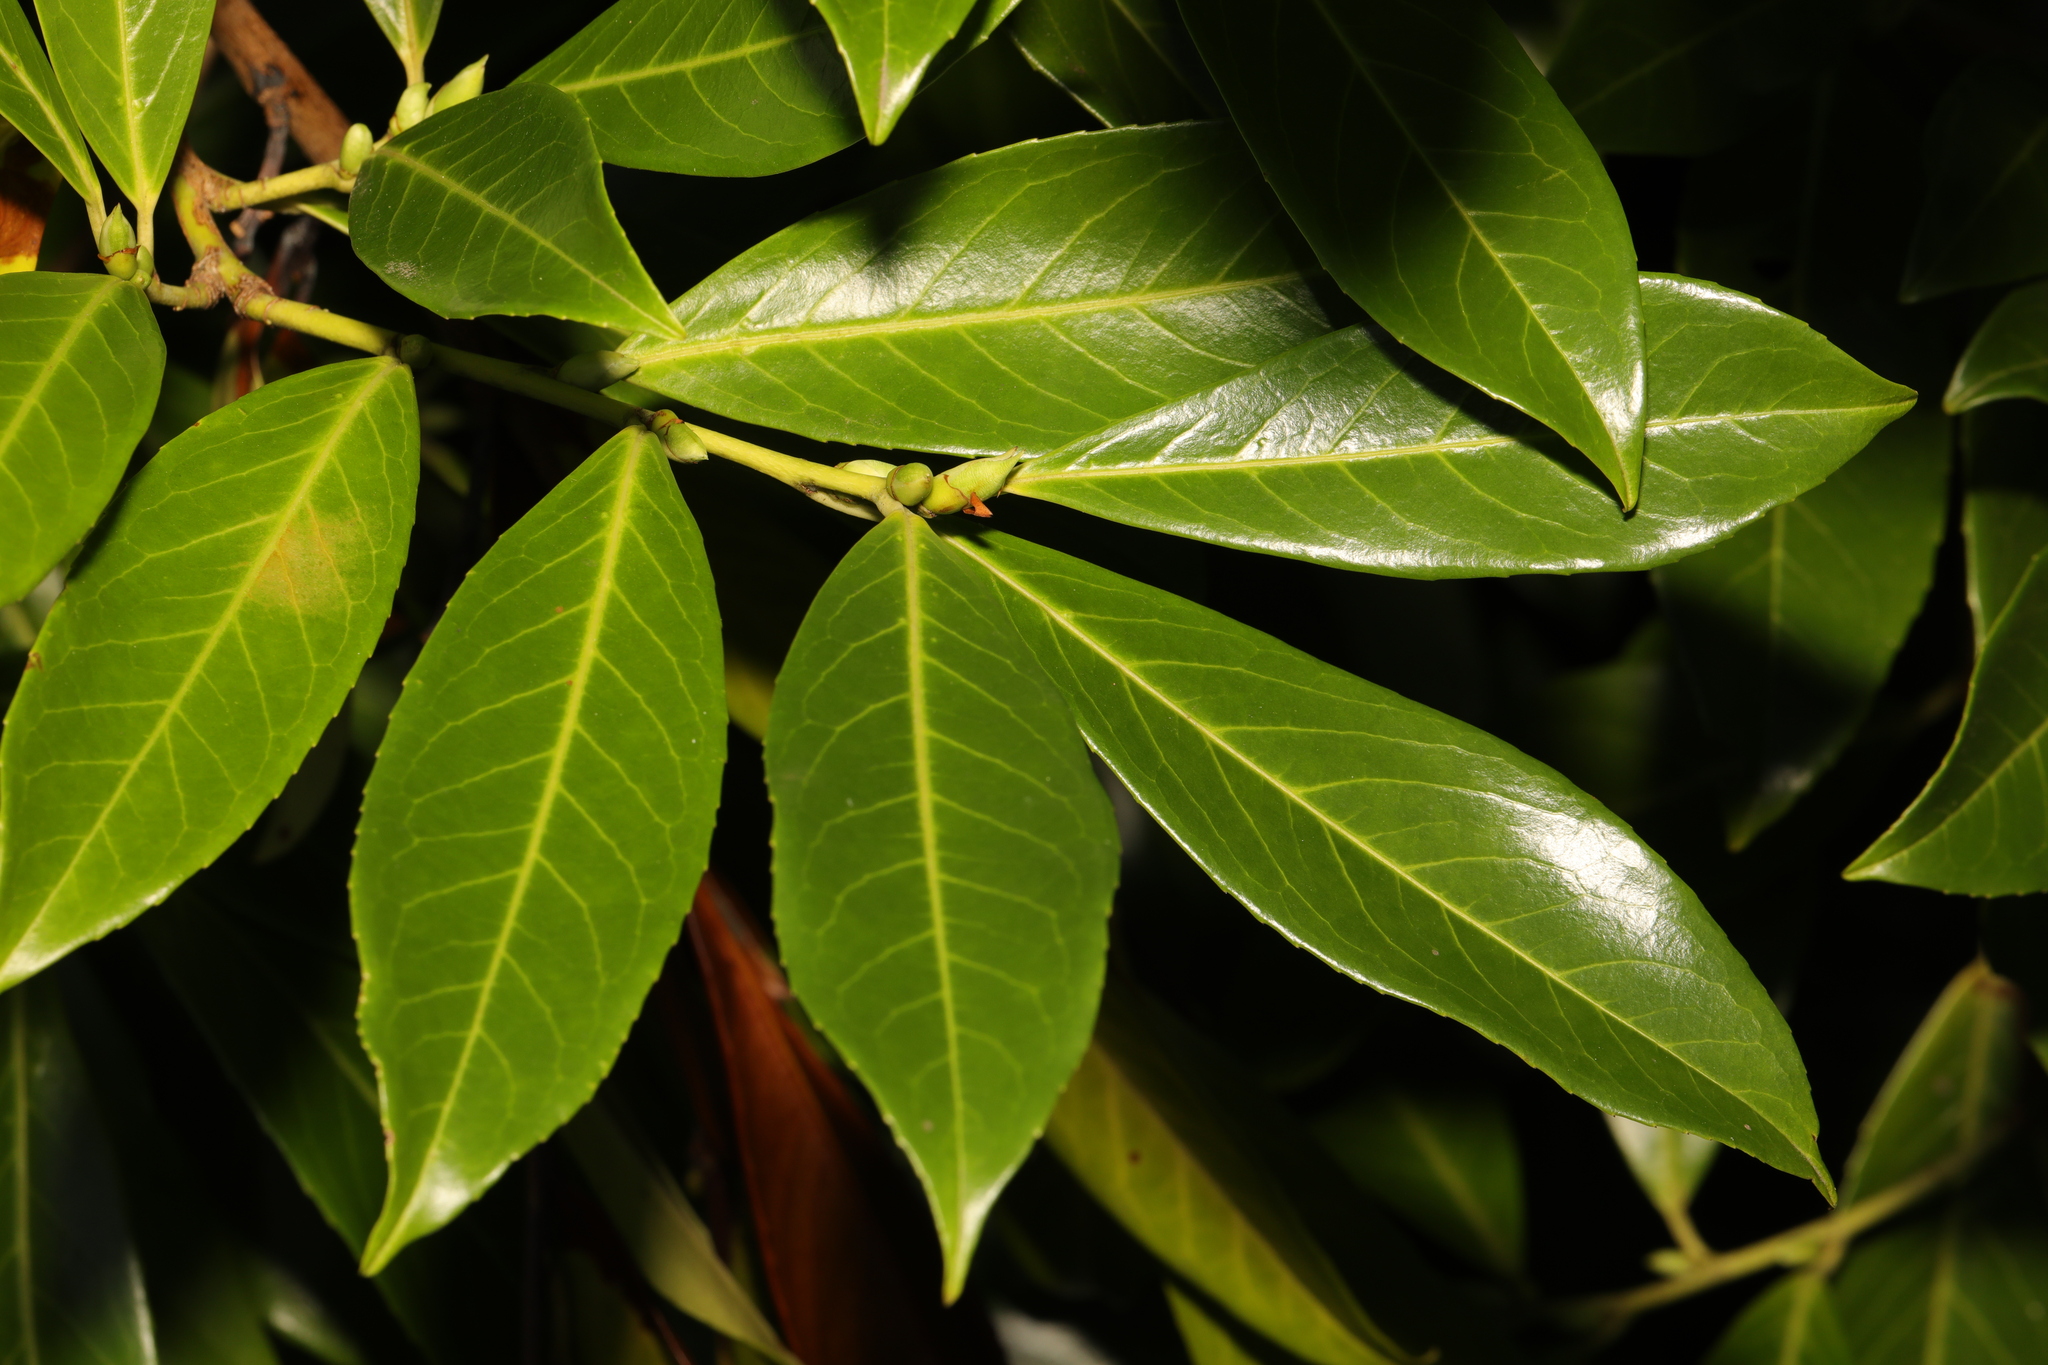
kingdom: Plantae
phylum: Tracheophyta
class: Magnoliopsida
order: Rosales
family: Rosaceae
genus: Prunus
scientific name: Prunus laurocerasus
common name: Cherry laurel
